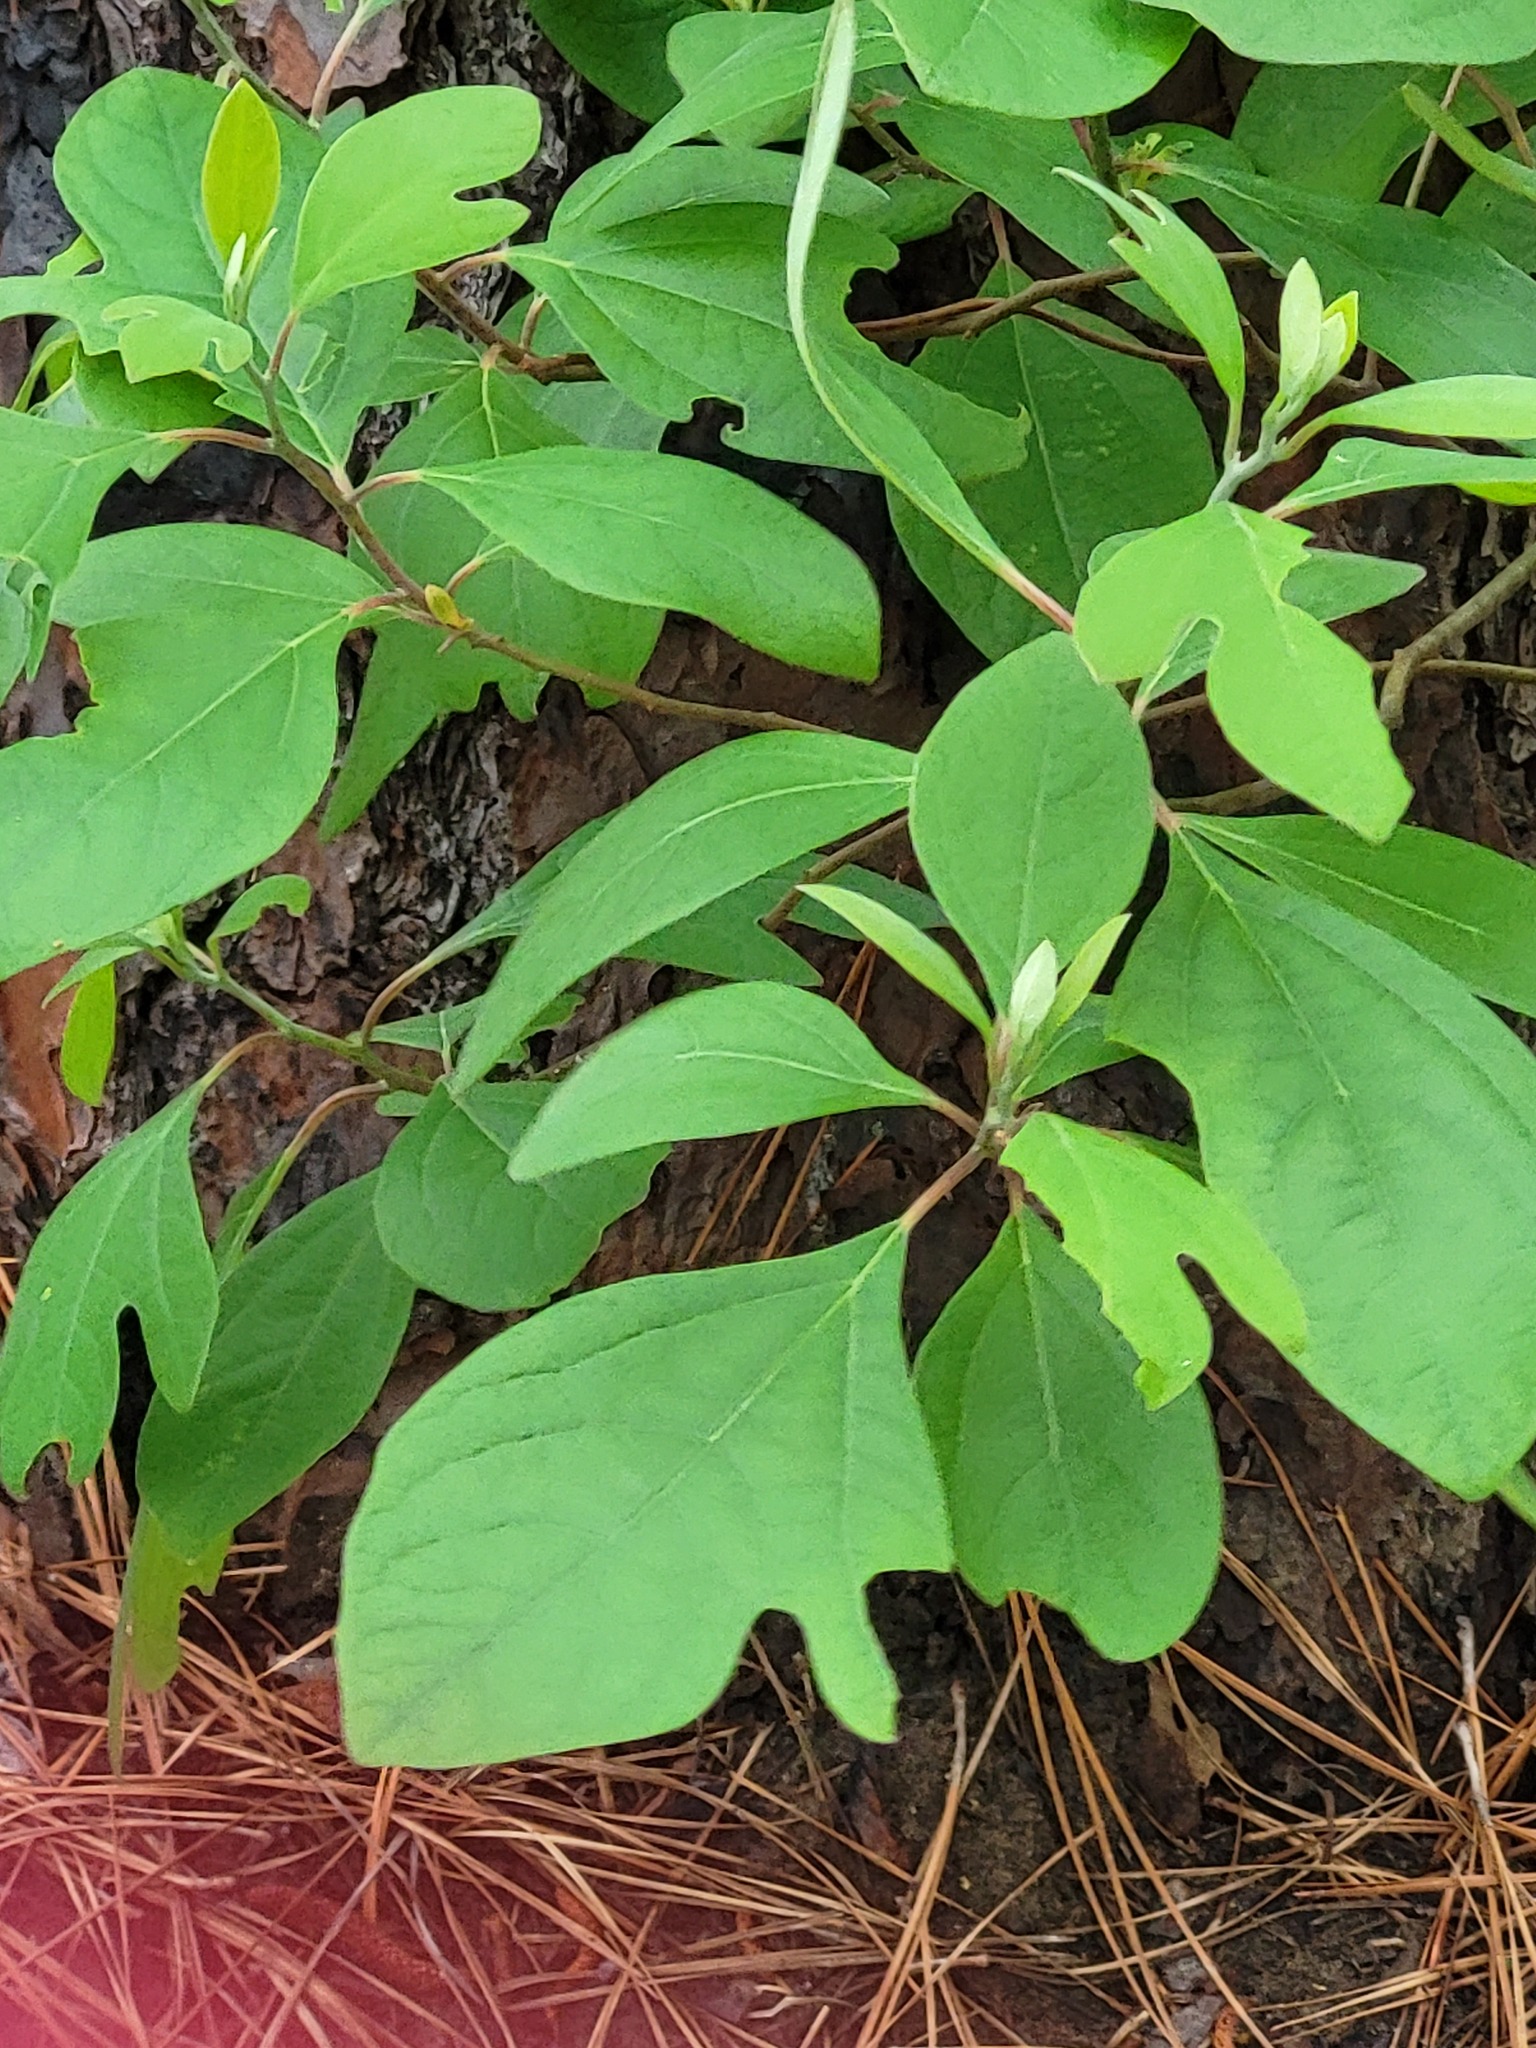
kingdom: Plantae
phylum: Tracheophyta
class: Magnoliopsida
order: Laurales
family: Lauraceae
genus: Sassafras
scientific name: Sassafras albidum
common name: Sassafras
